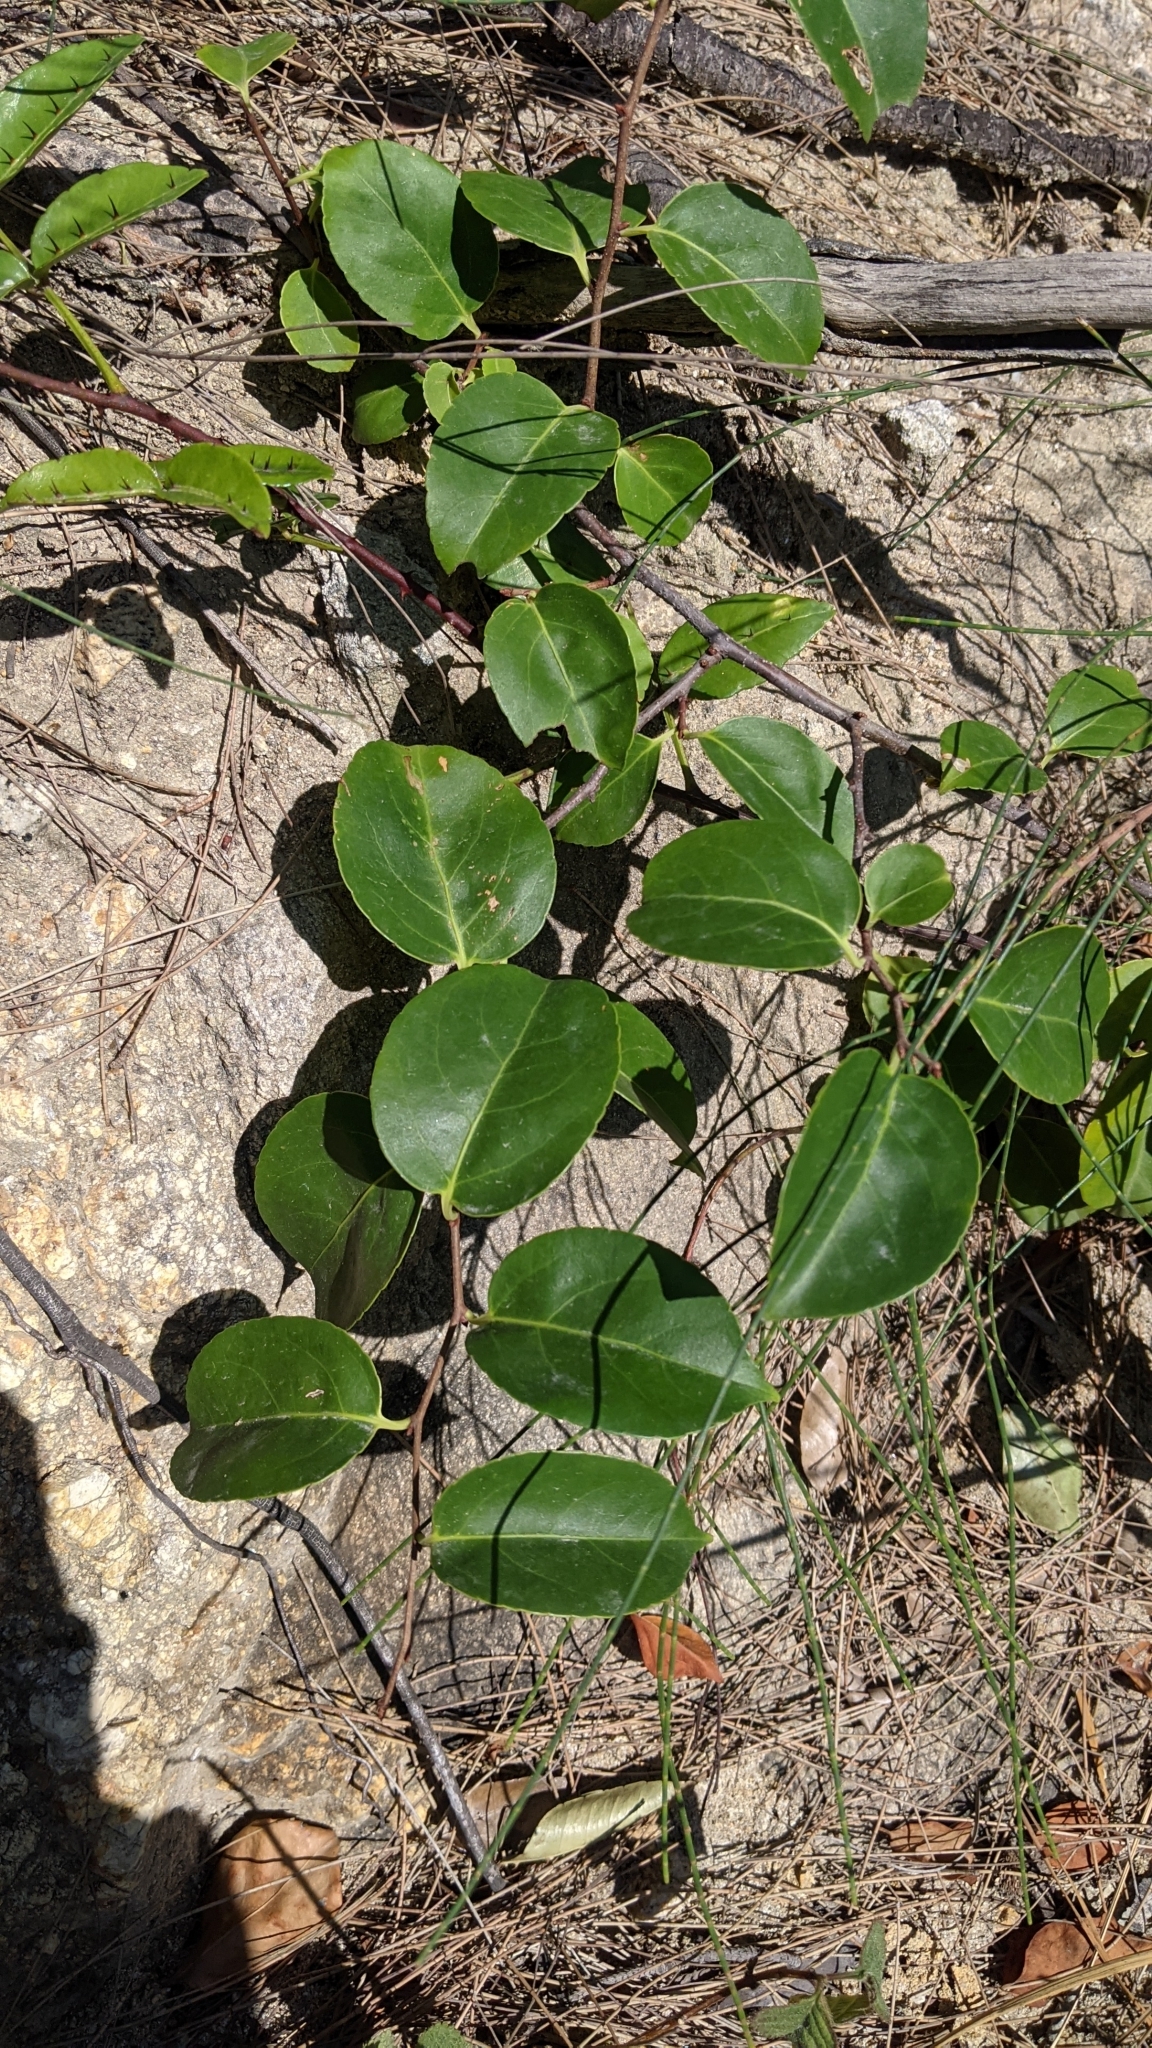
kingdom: Plantae
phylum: Tracheophyta
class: Magnoliopsida
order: Celastrales
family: Celastraceae
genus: Celastrus
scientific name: Celastrus aculeatus
